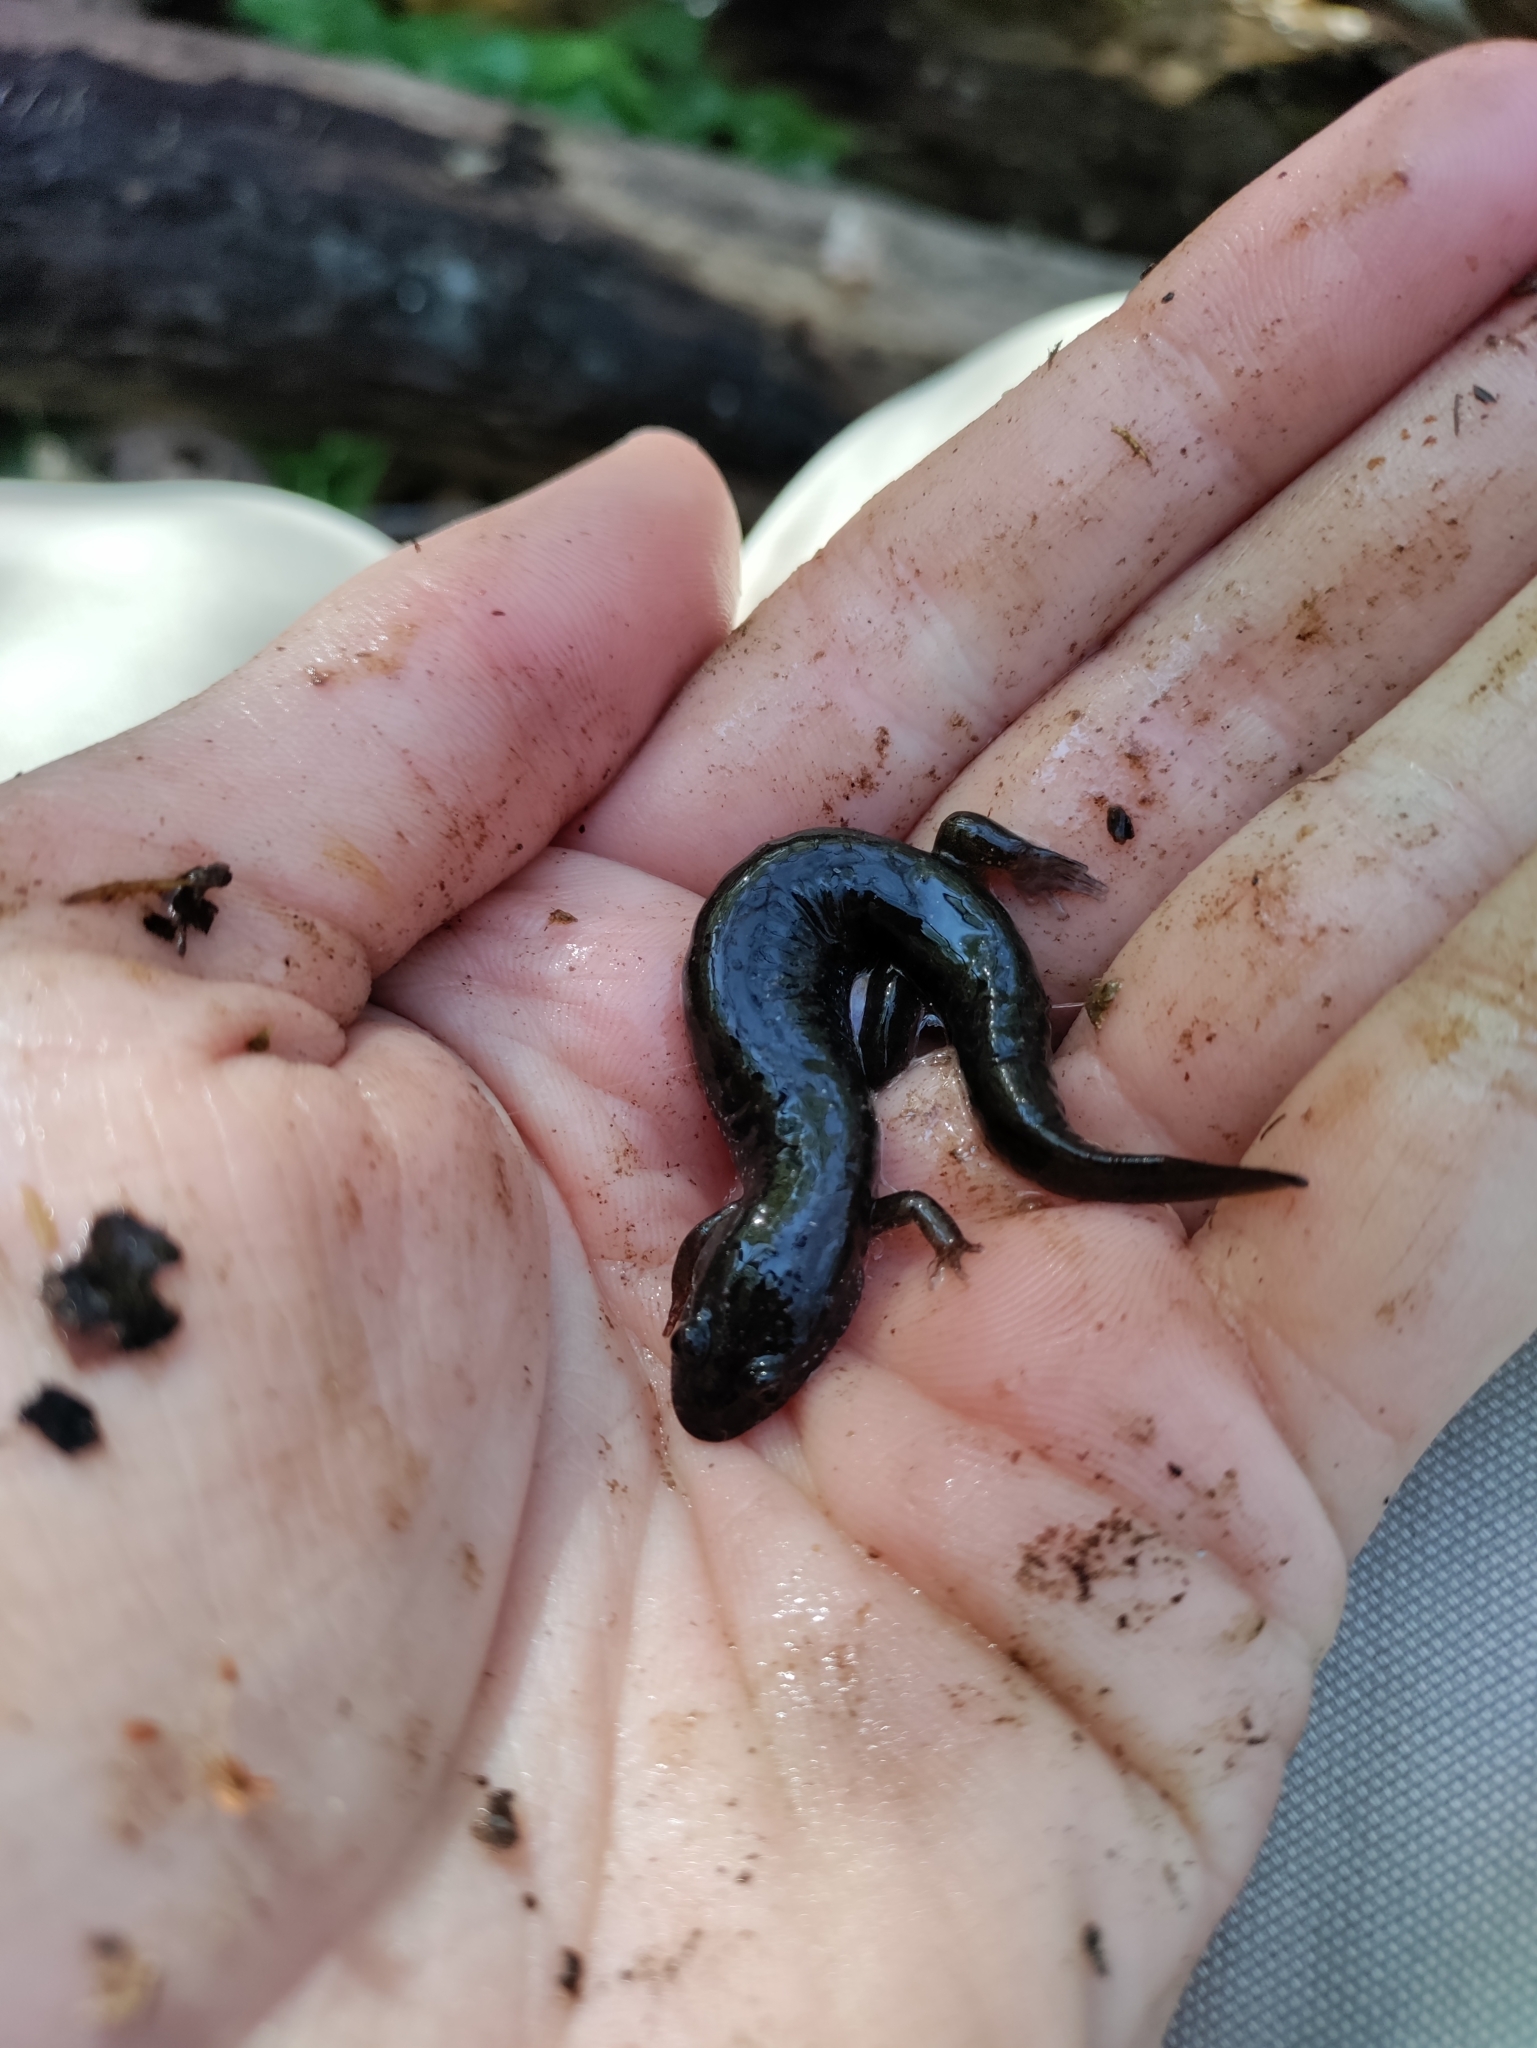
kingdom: Animalia
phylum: Chordata
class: Amphibia
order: Caudata
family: Plethodontidae
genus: Desmognathus
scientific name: Desmognathus fuscus
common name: Northern dusky salamander
